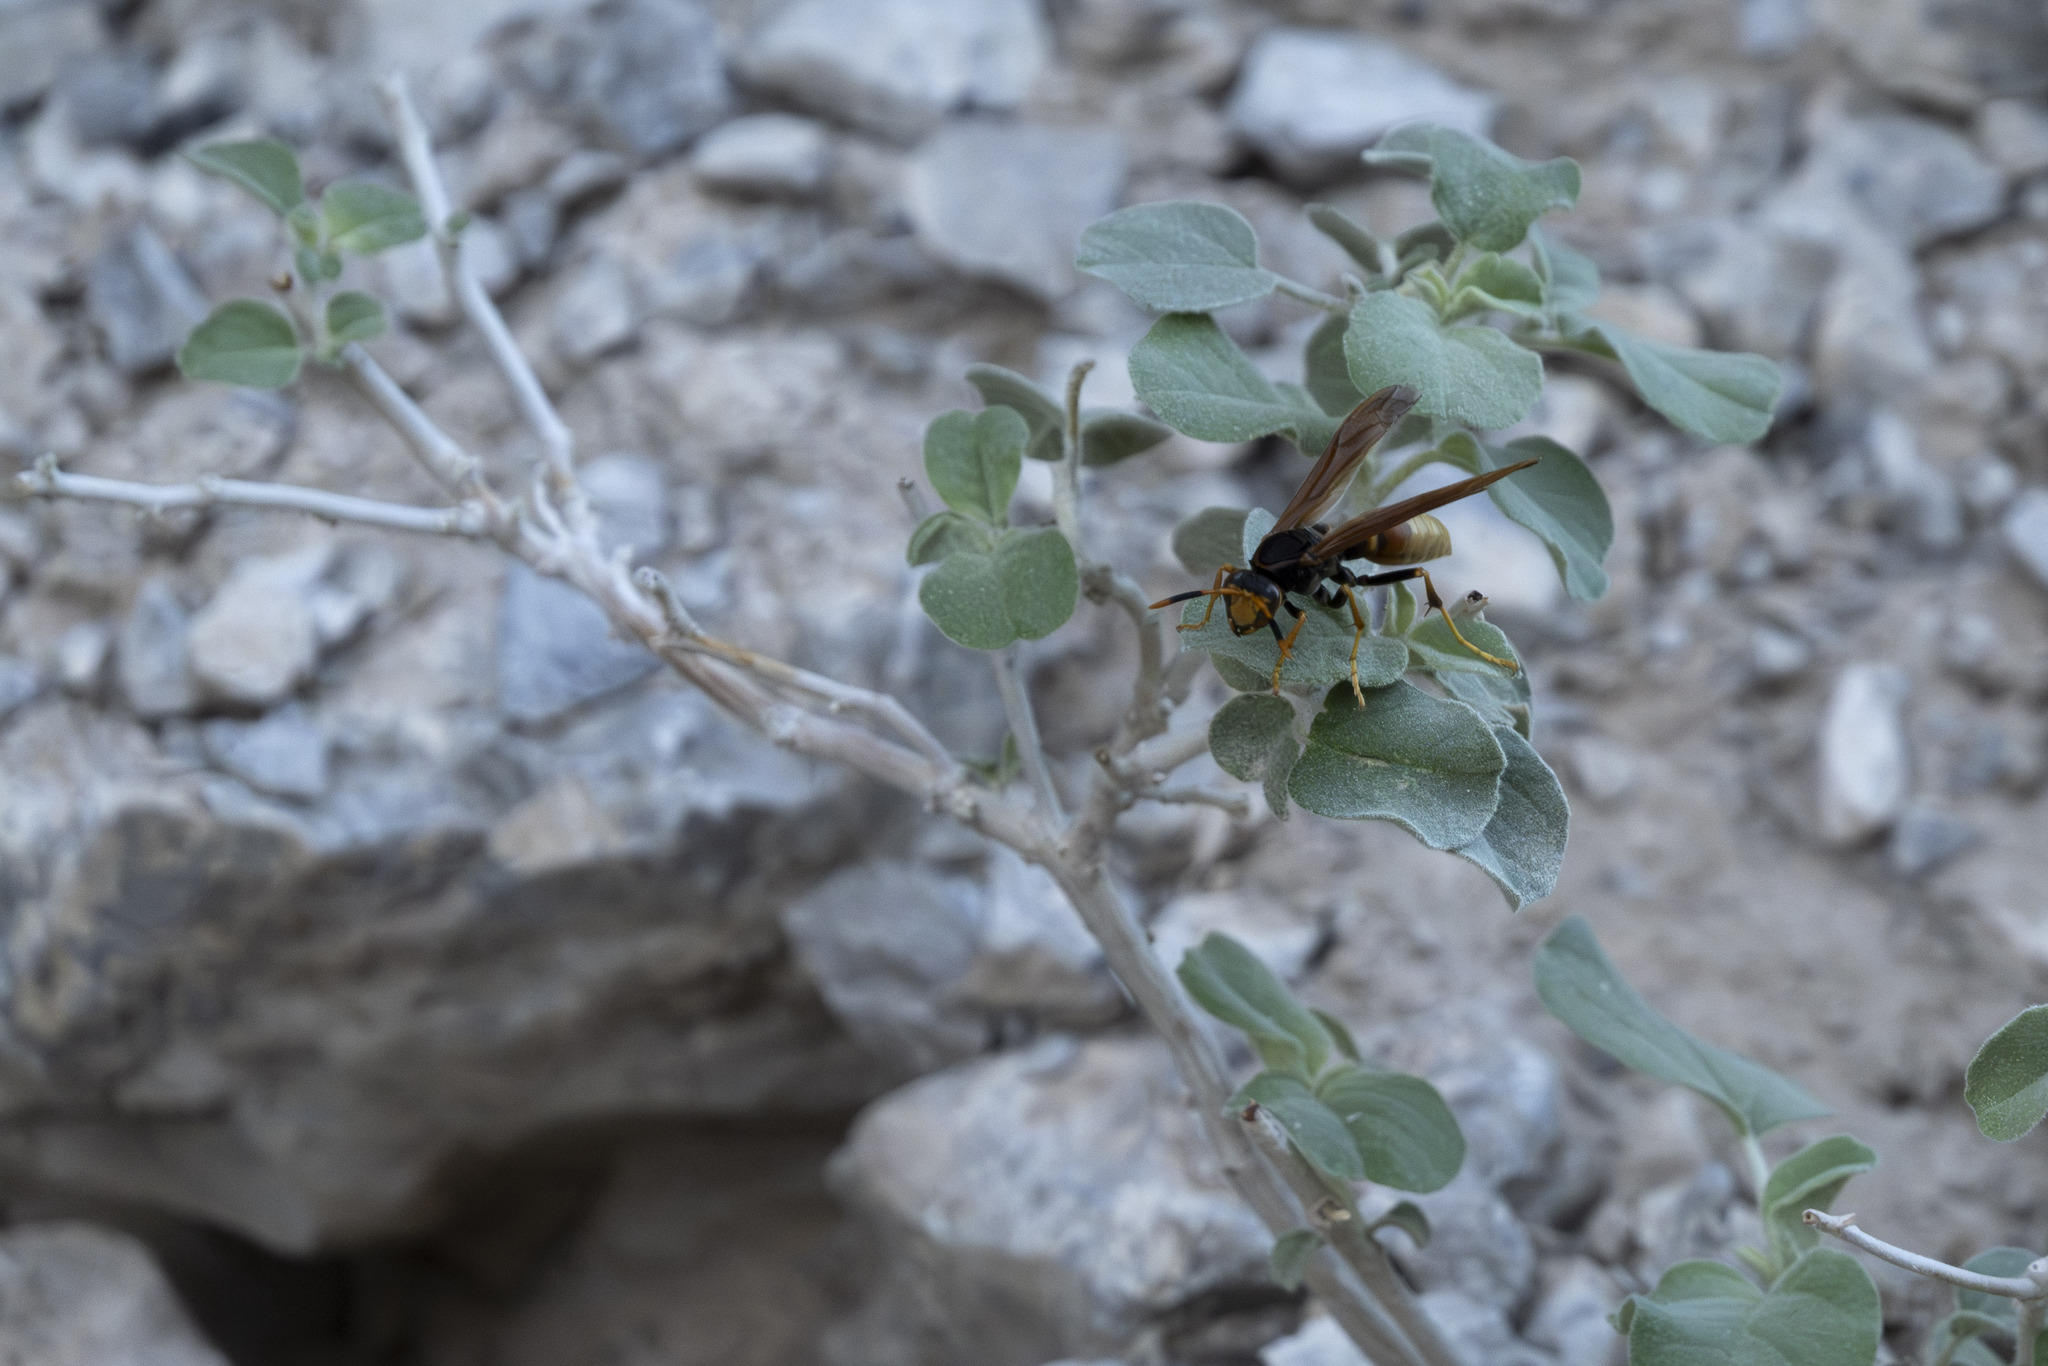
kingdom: Animalia
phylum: Arthropoda
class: Insecta
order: Hymenoptera
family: Eumenidae
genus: Polistes
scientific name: Polistes comanchus
